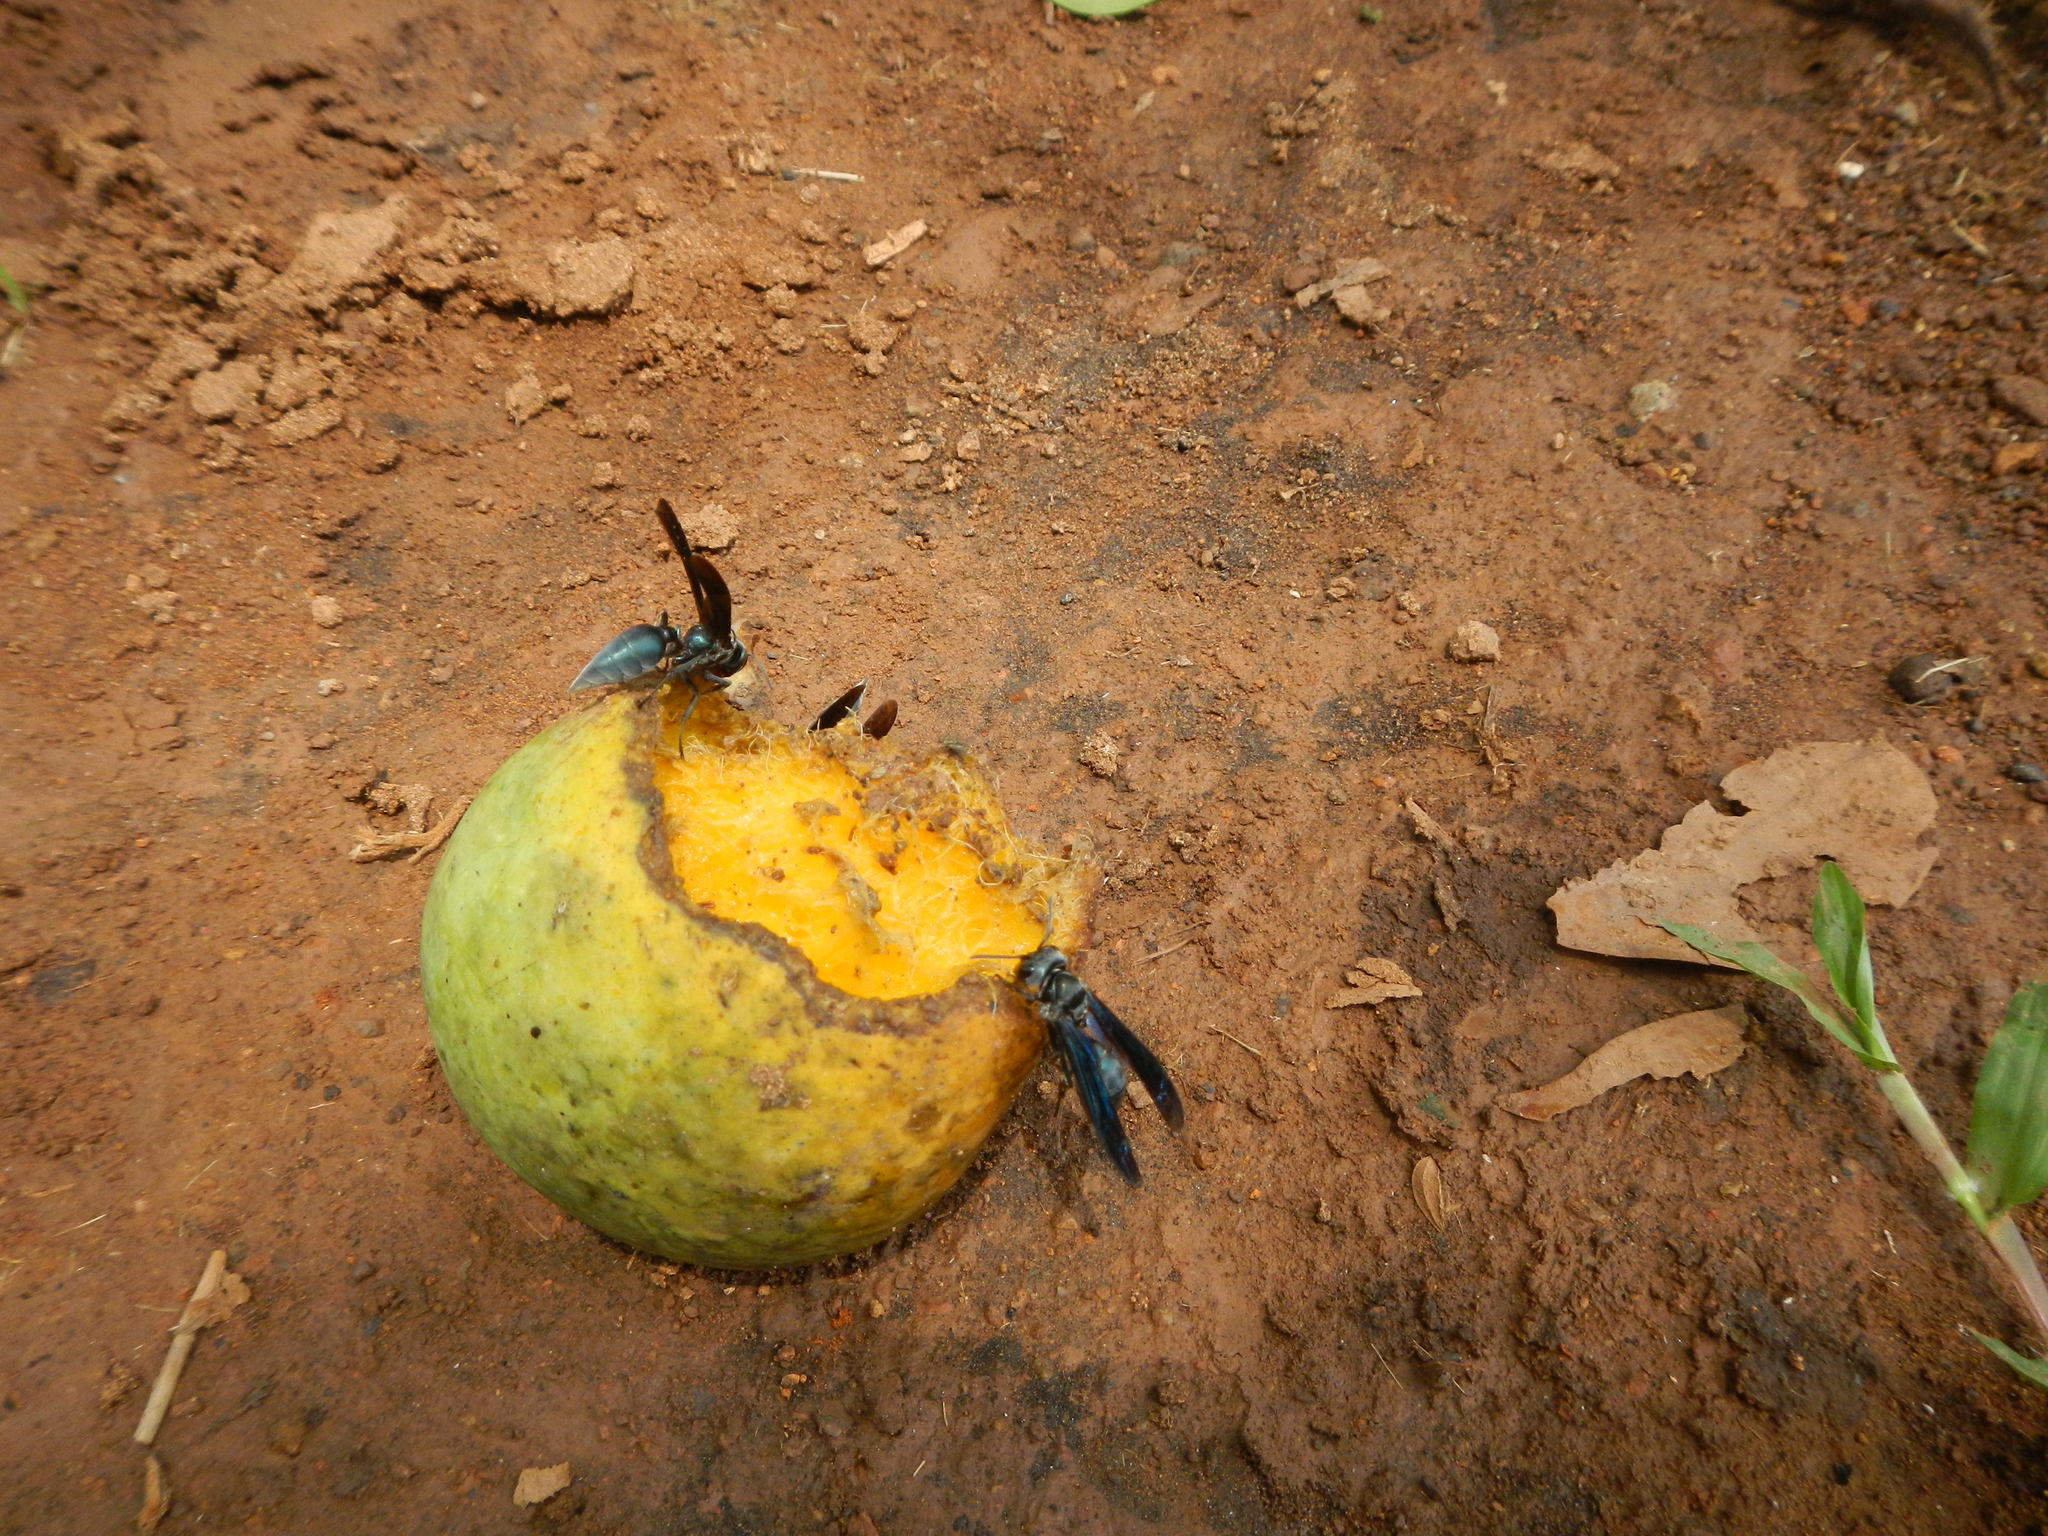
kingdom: Animalia
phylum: Arthropoda
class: Insecta
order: Hymenoptera
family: Vespidae
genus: Synoeca
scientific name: Synoeca septentrionalis
